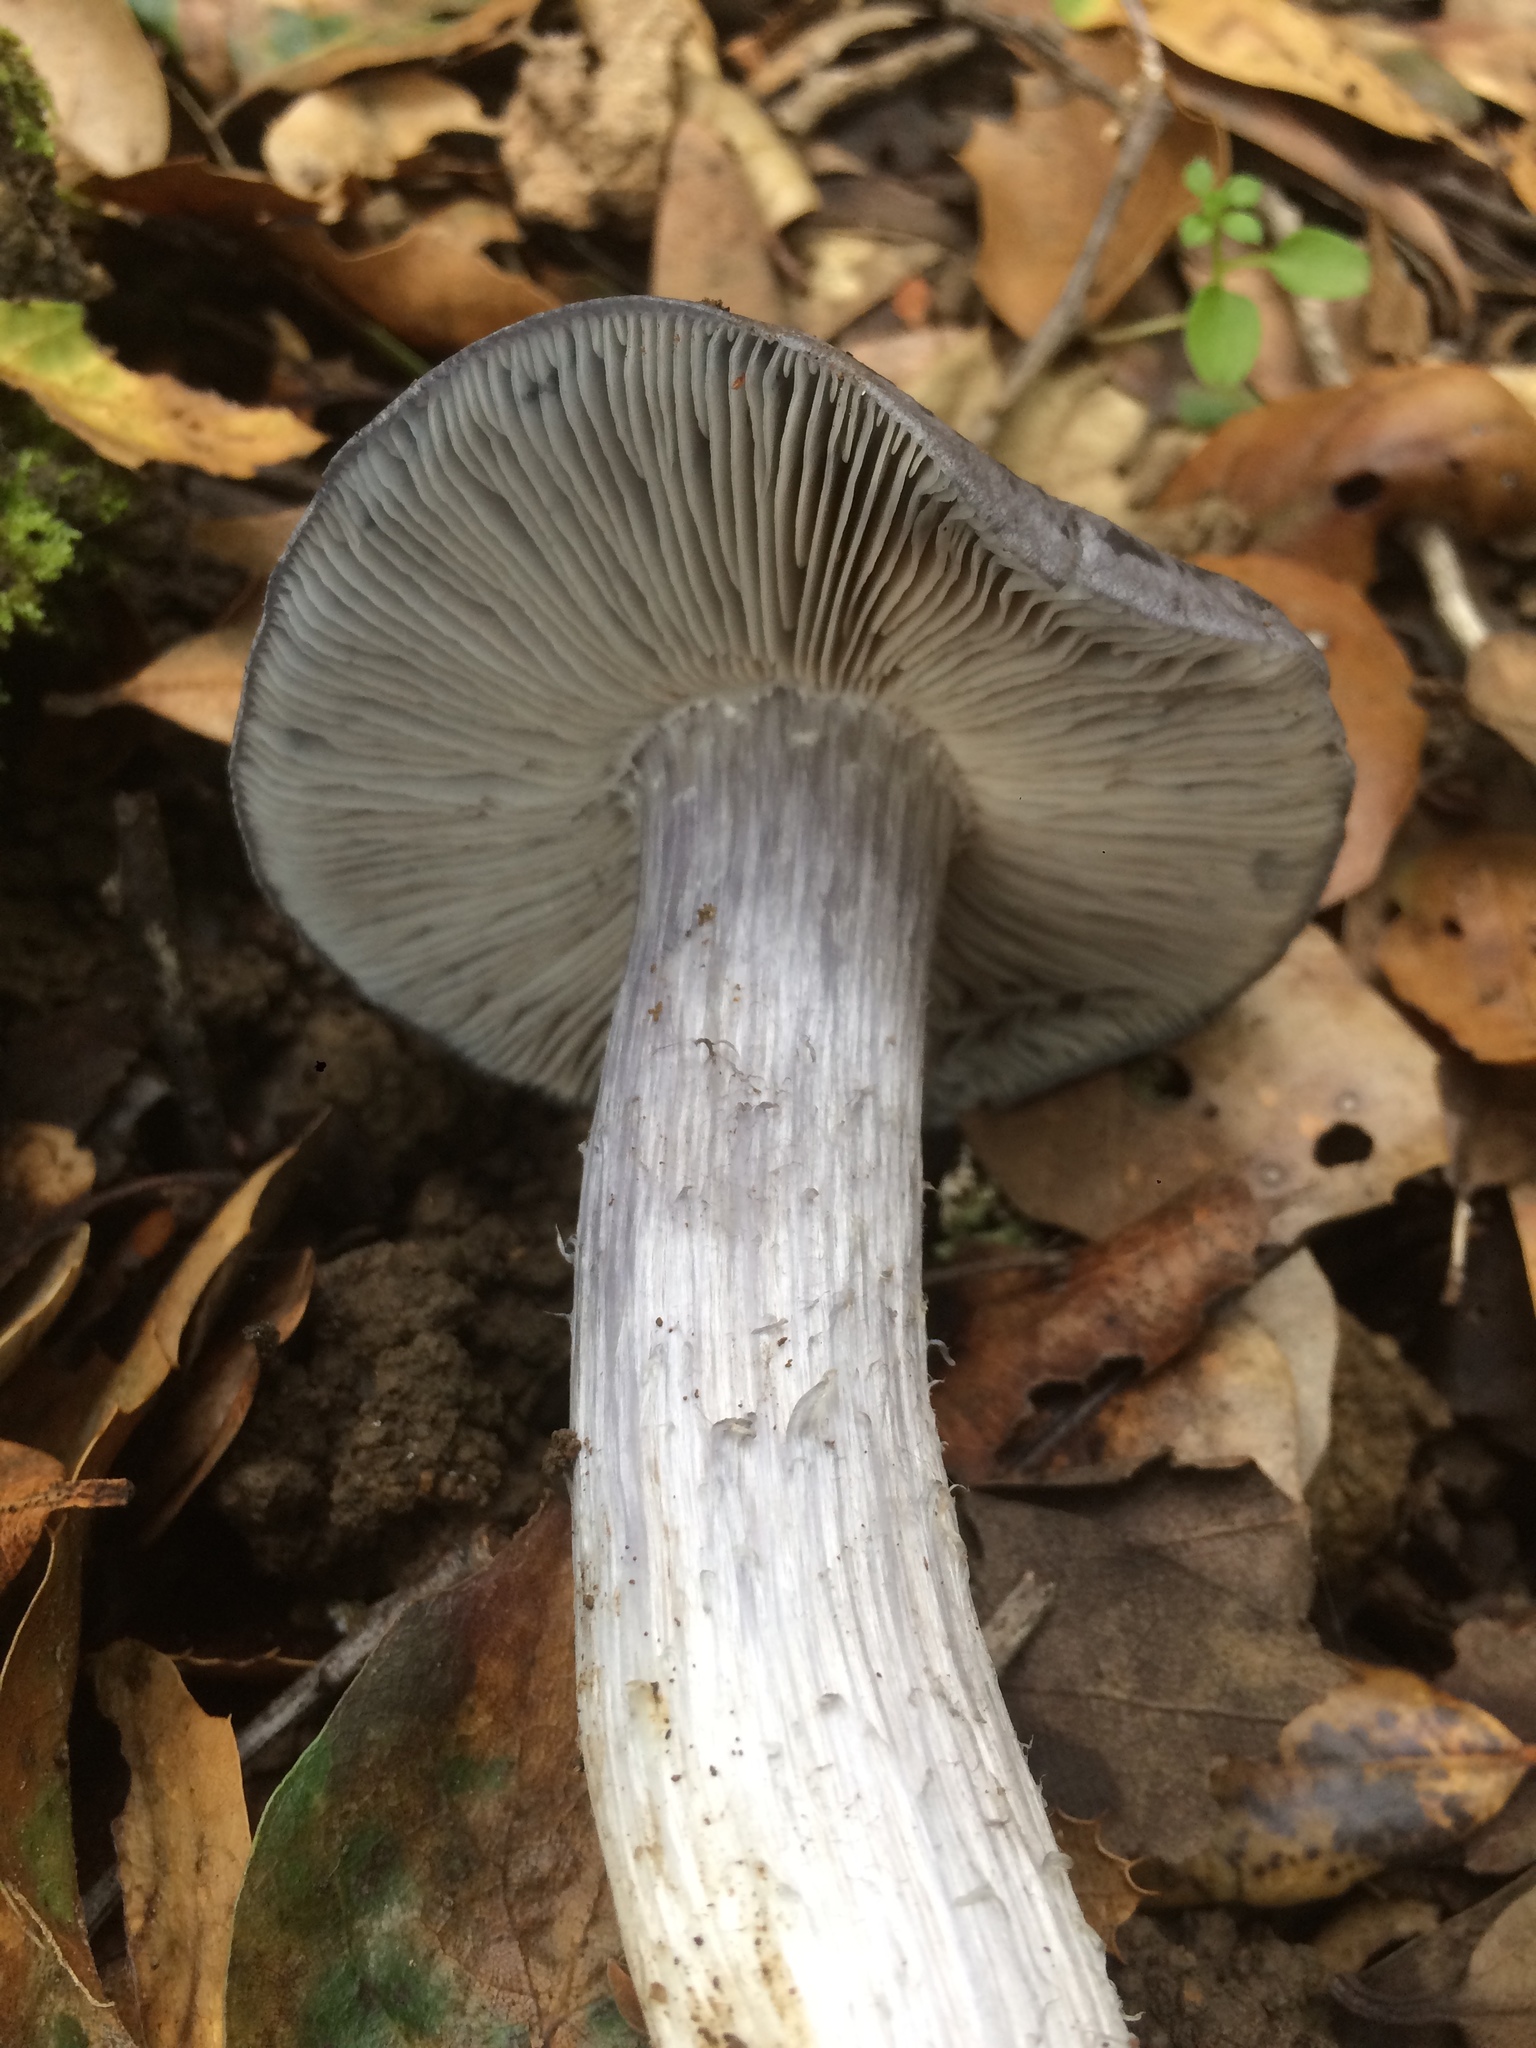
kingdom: Fungi
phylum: Basidiomycota
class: Agaricomycetes
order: Agaricales
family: Entolomataceae
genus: Entoloma
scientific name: Entoloma medianox
